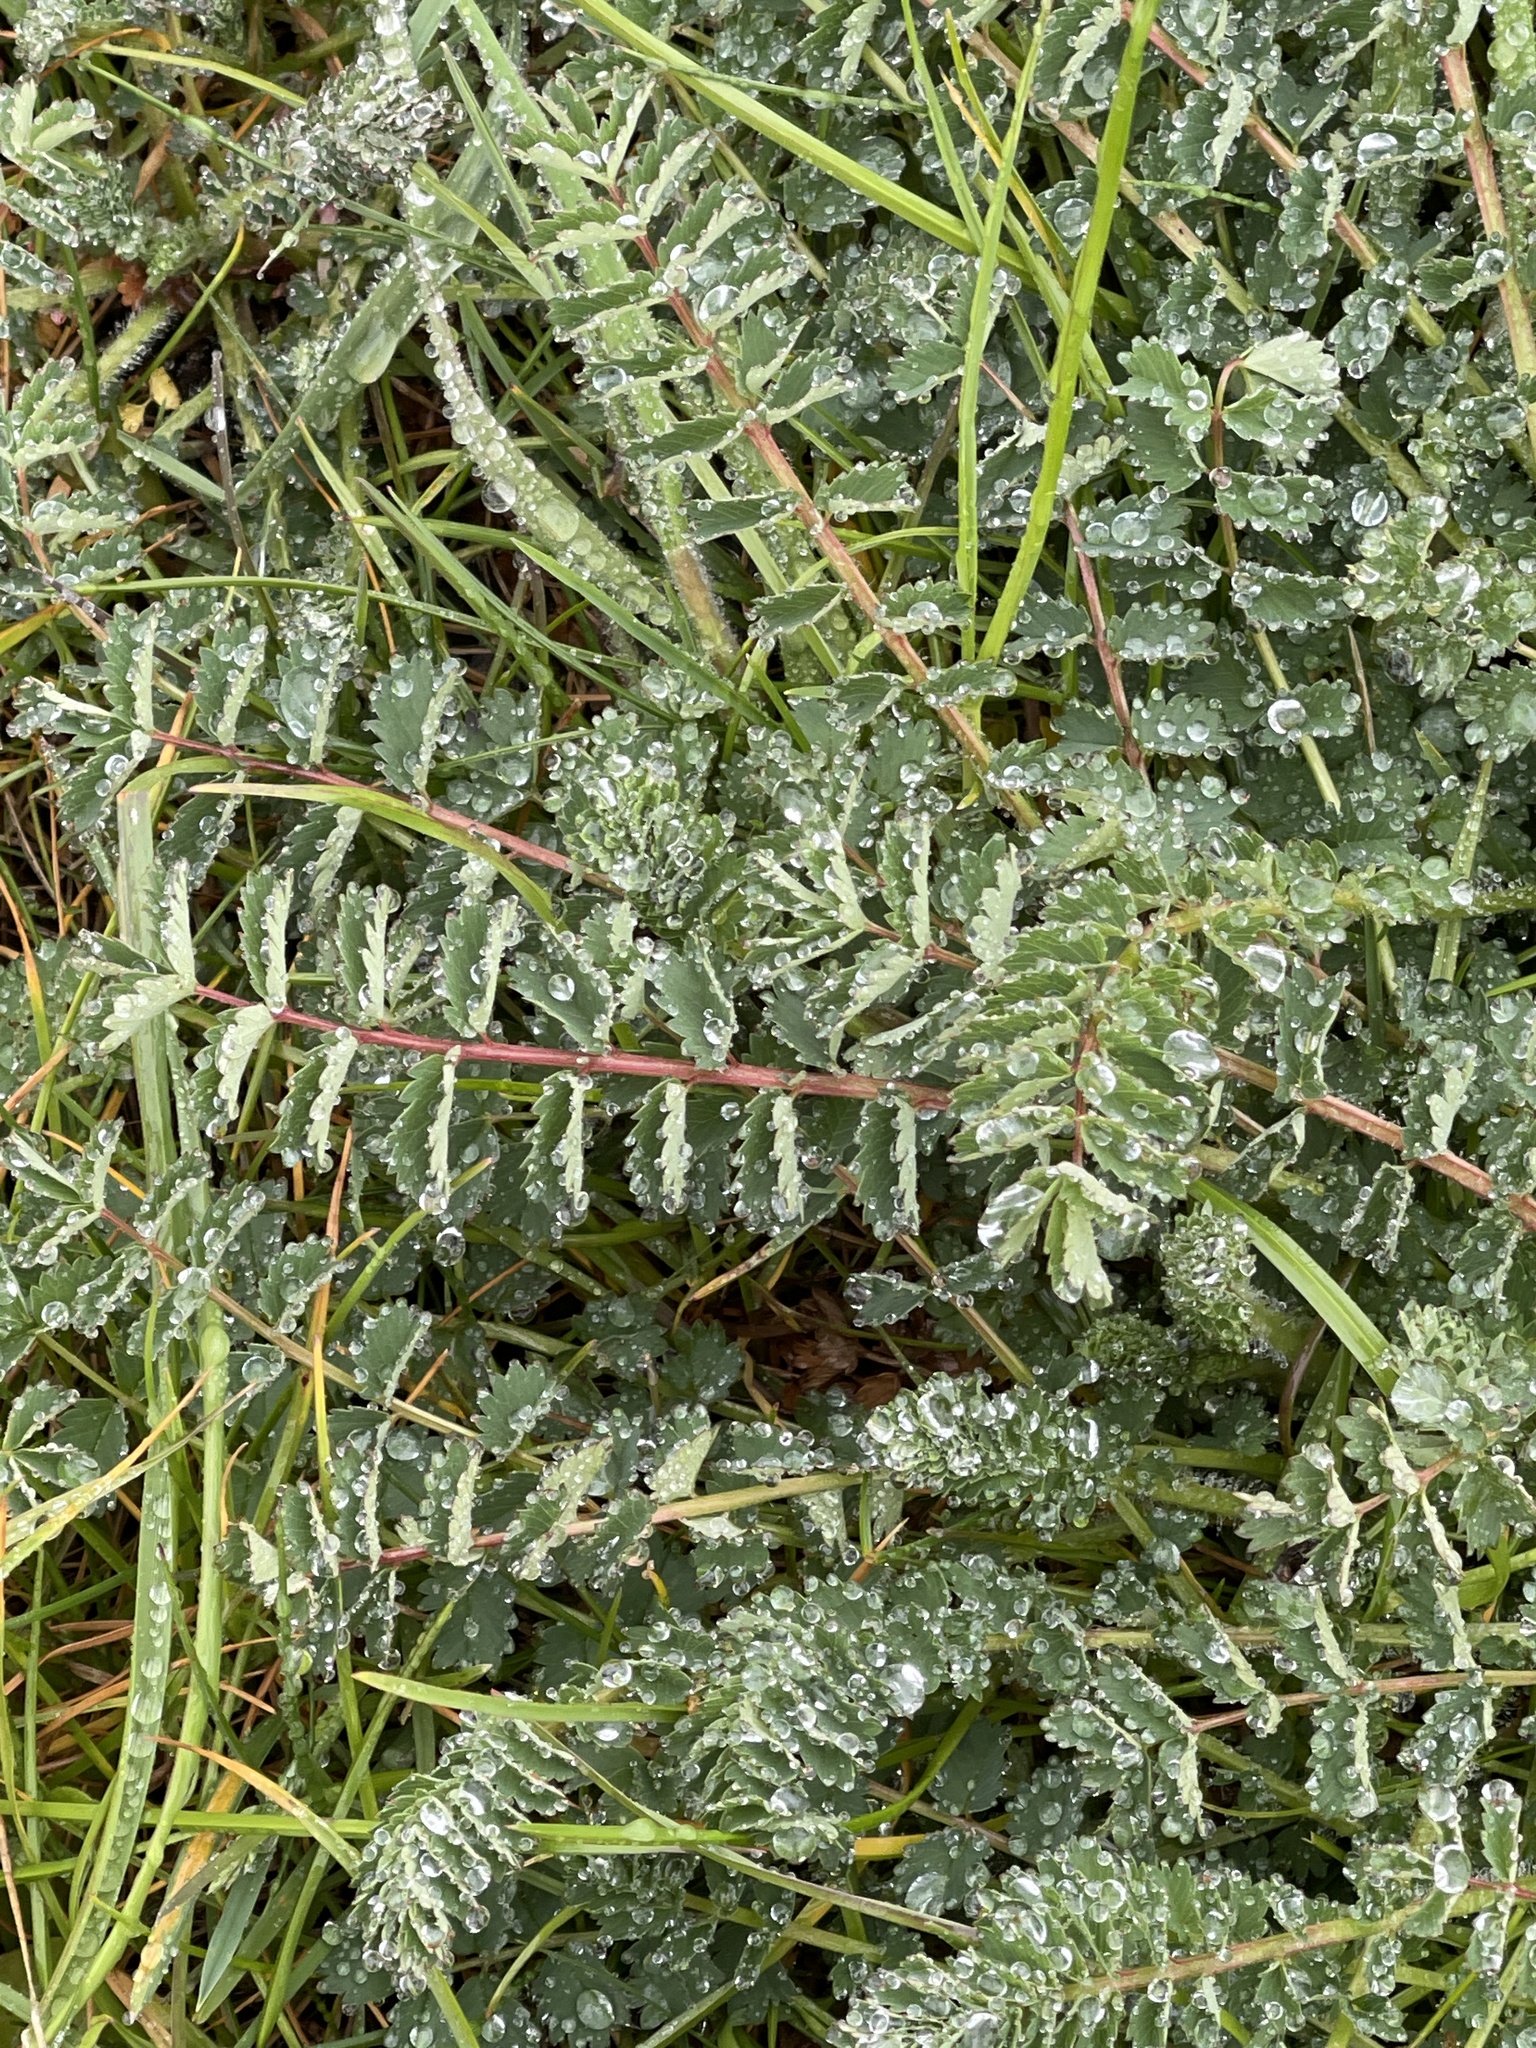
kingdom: Plantae
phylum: Tracheophyta
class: Magnoliopsida
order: Rosales
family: Rosaceae
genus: Poterium
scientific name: Poterium sanguisorba
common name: Salad burnet
